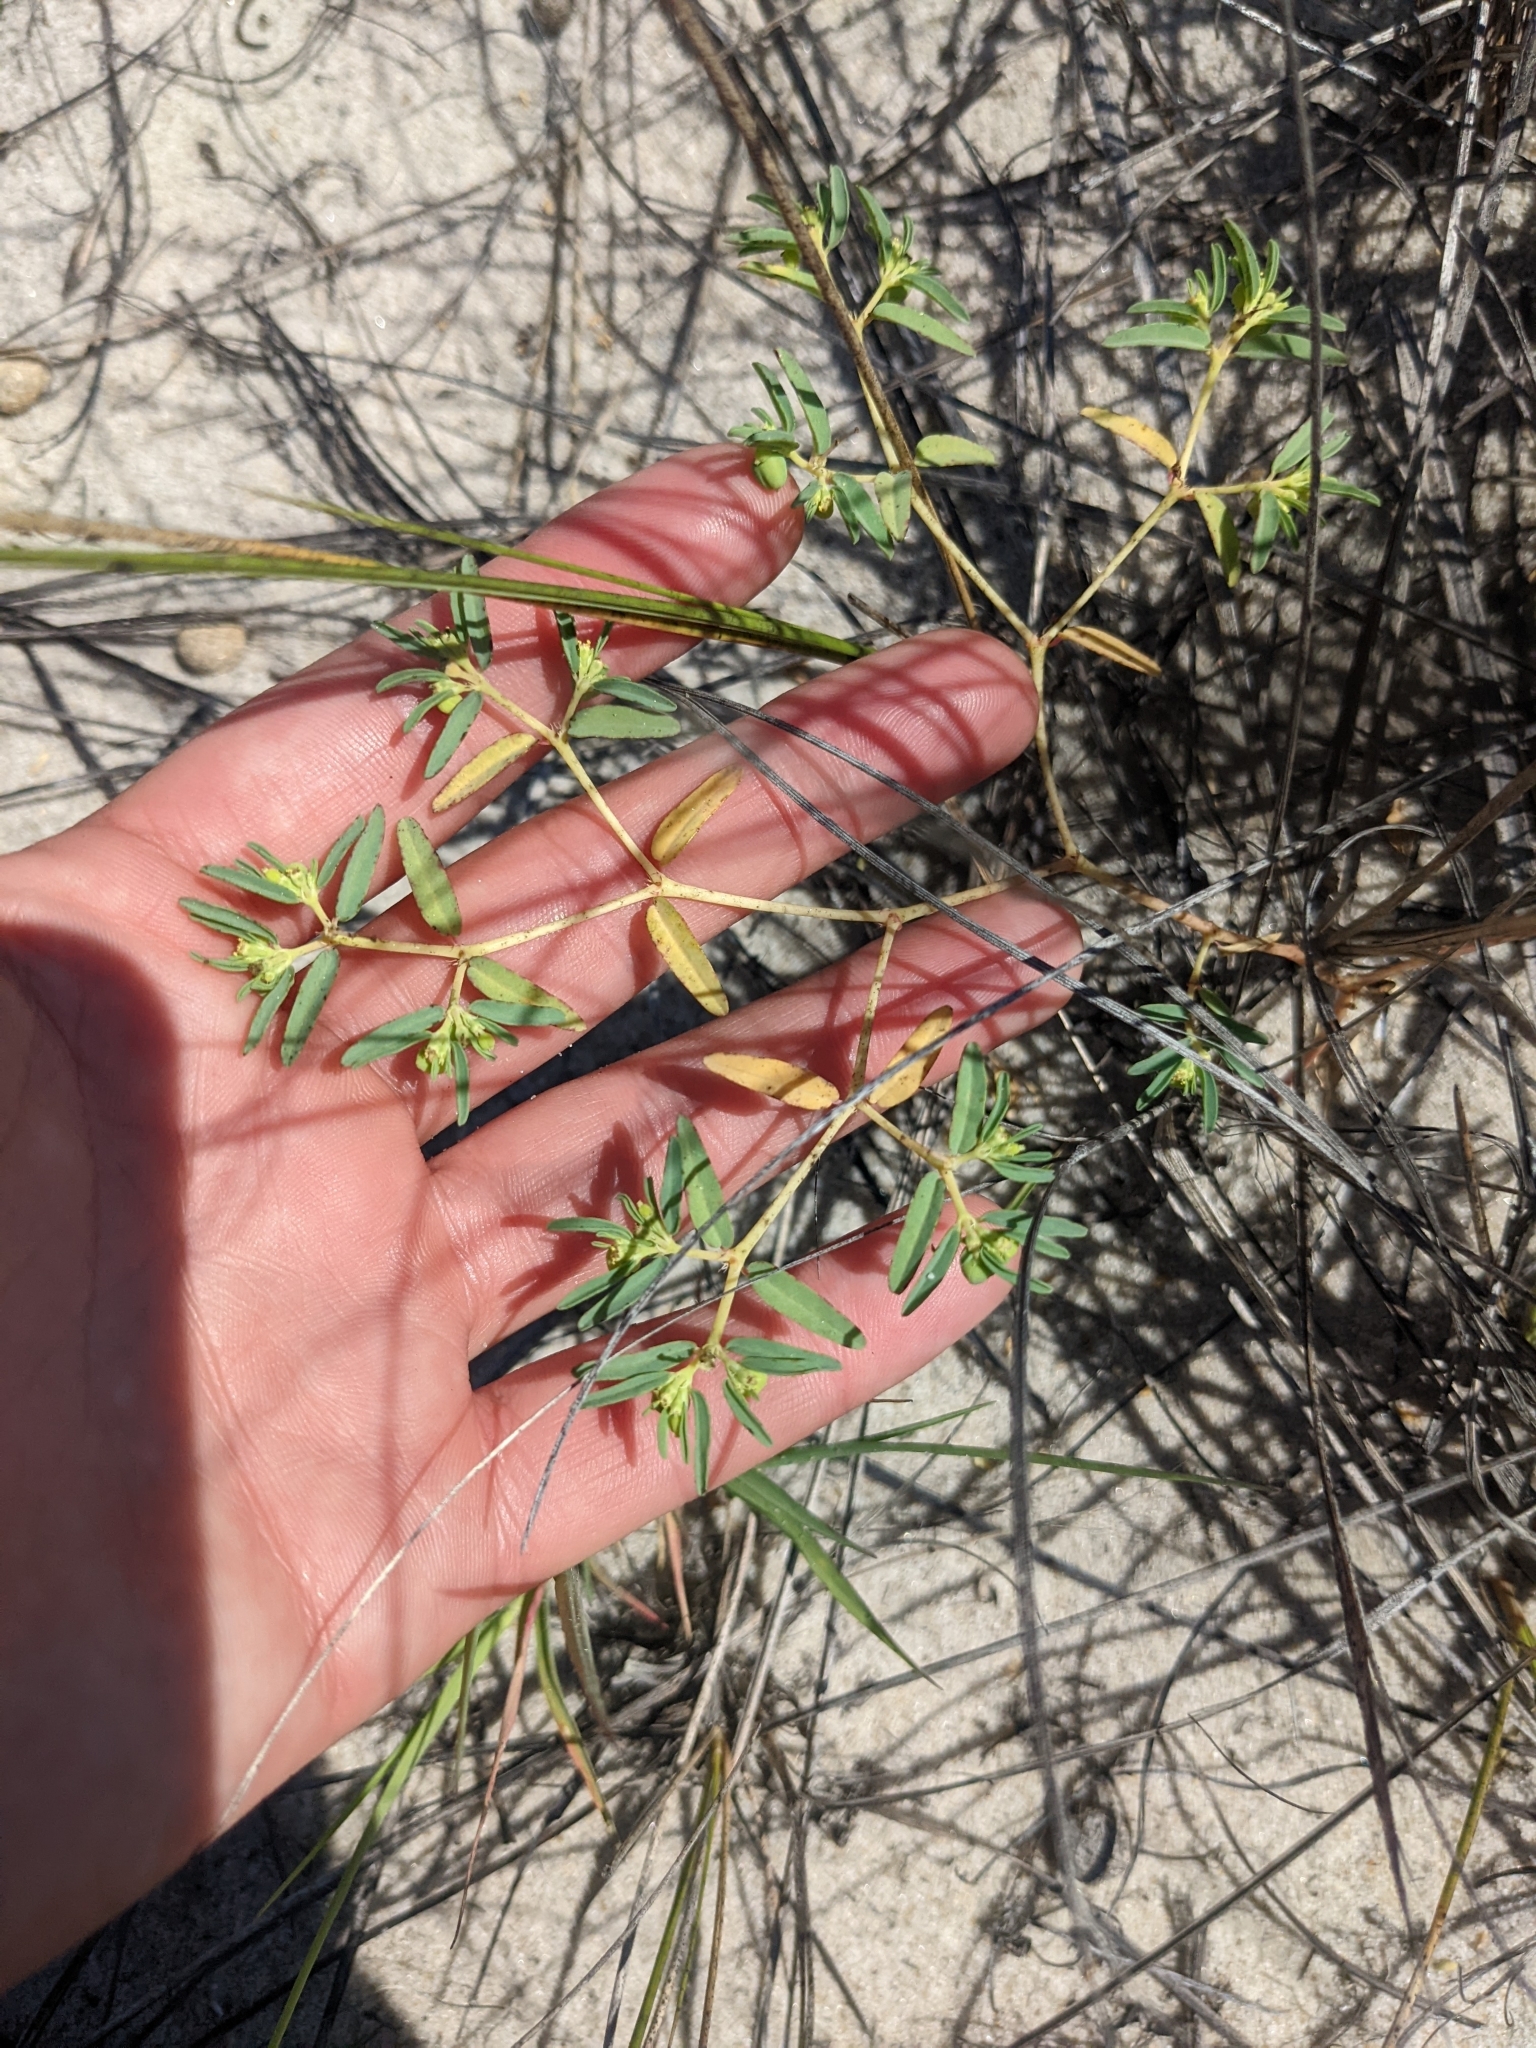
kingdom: Plantae
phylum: Tracheophyta
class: Magnoliopsida
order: Malpighiales
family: Euphorbiaceae
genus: Euphorbia
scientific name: Euphorbia polygonifolia
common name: Knotweed spurge
